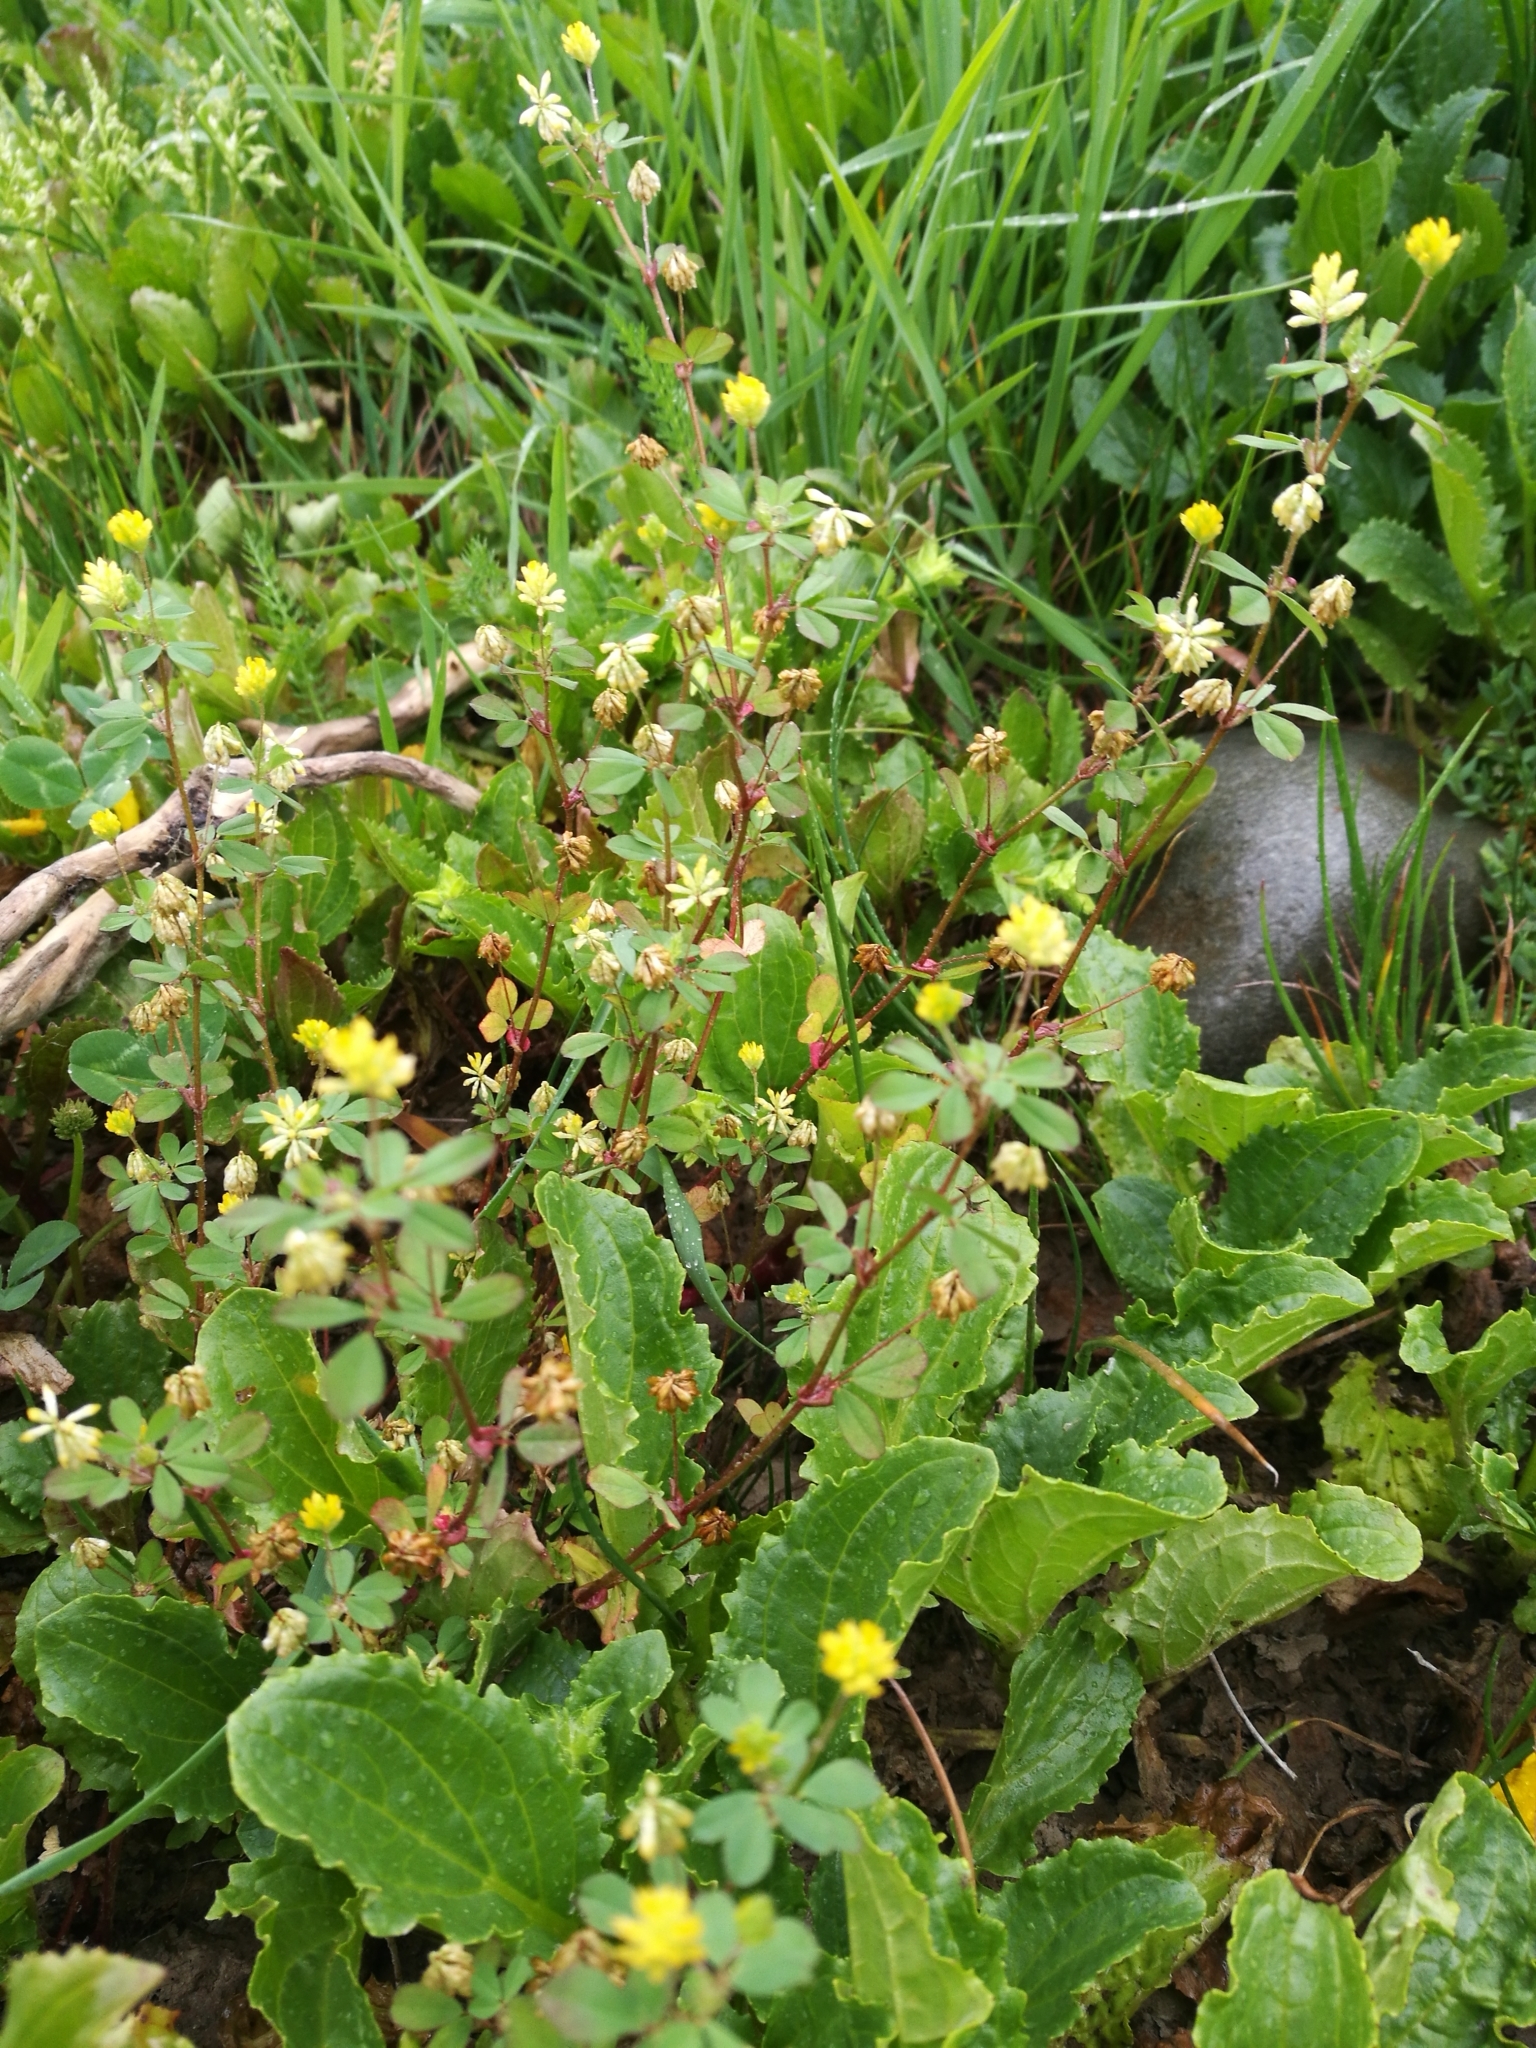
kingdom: Plantae
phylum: Tracheophyta
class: Magnoliopsida
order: Fabales
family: Fabaceae
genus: Trifolium
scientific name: Trifolium dubium
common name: Suckling clover
